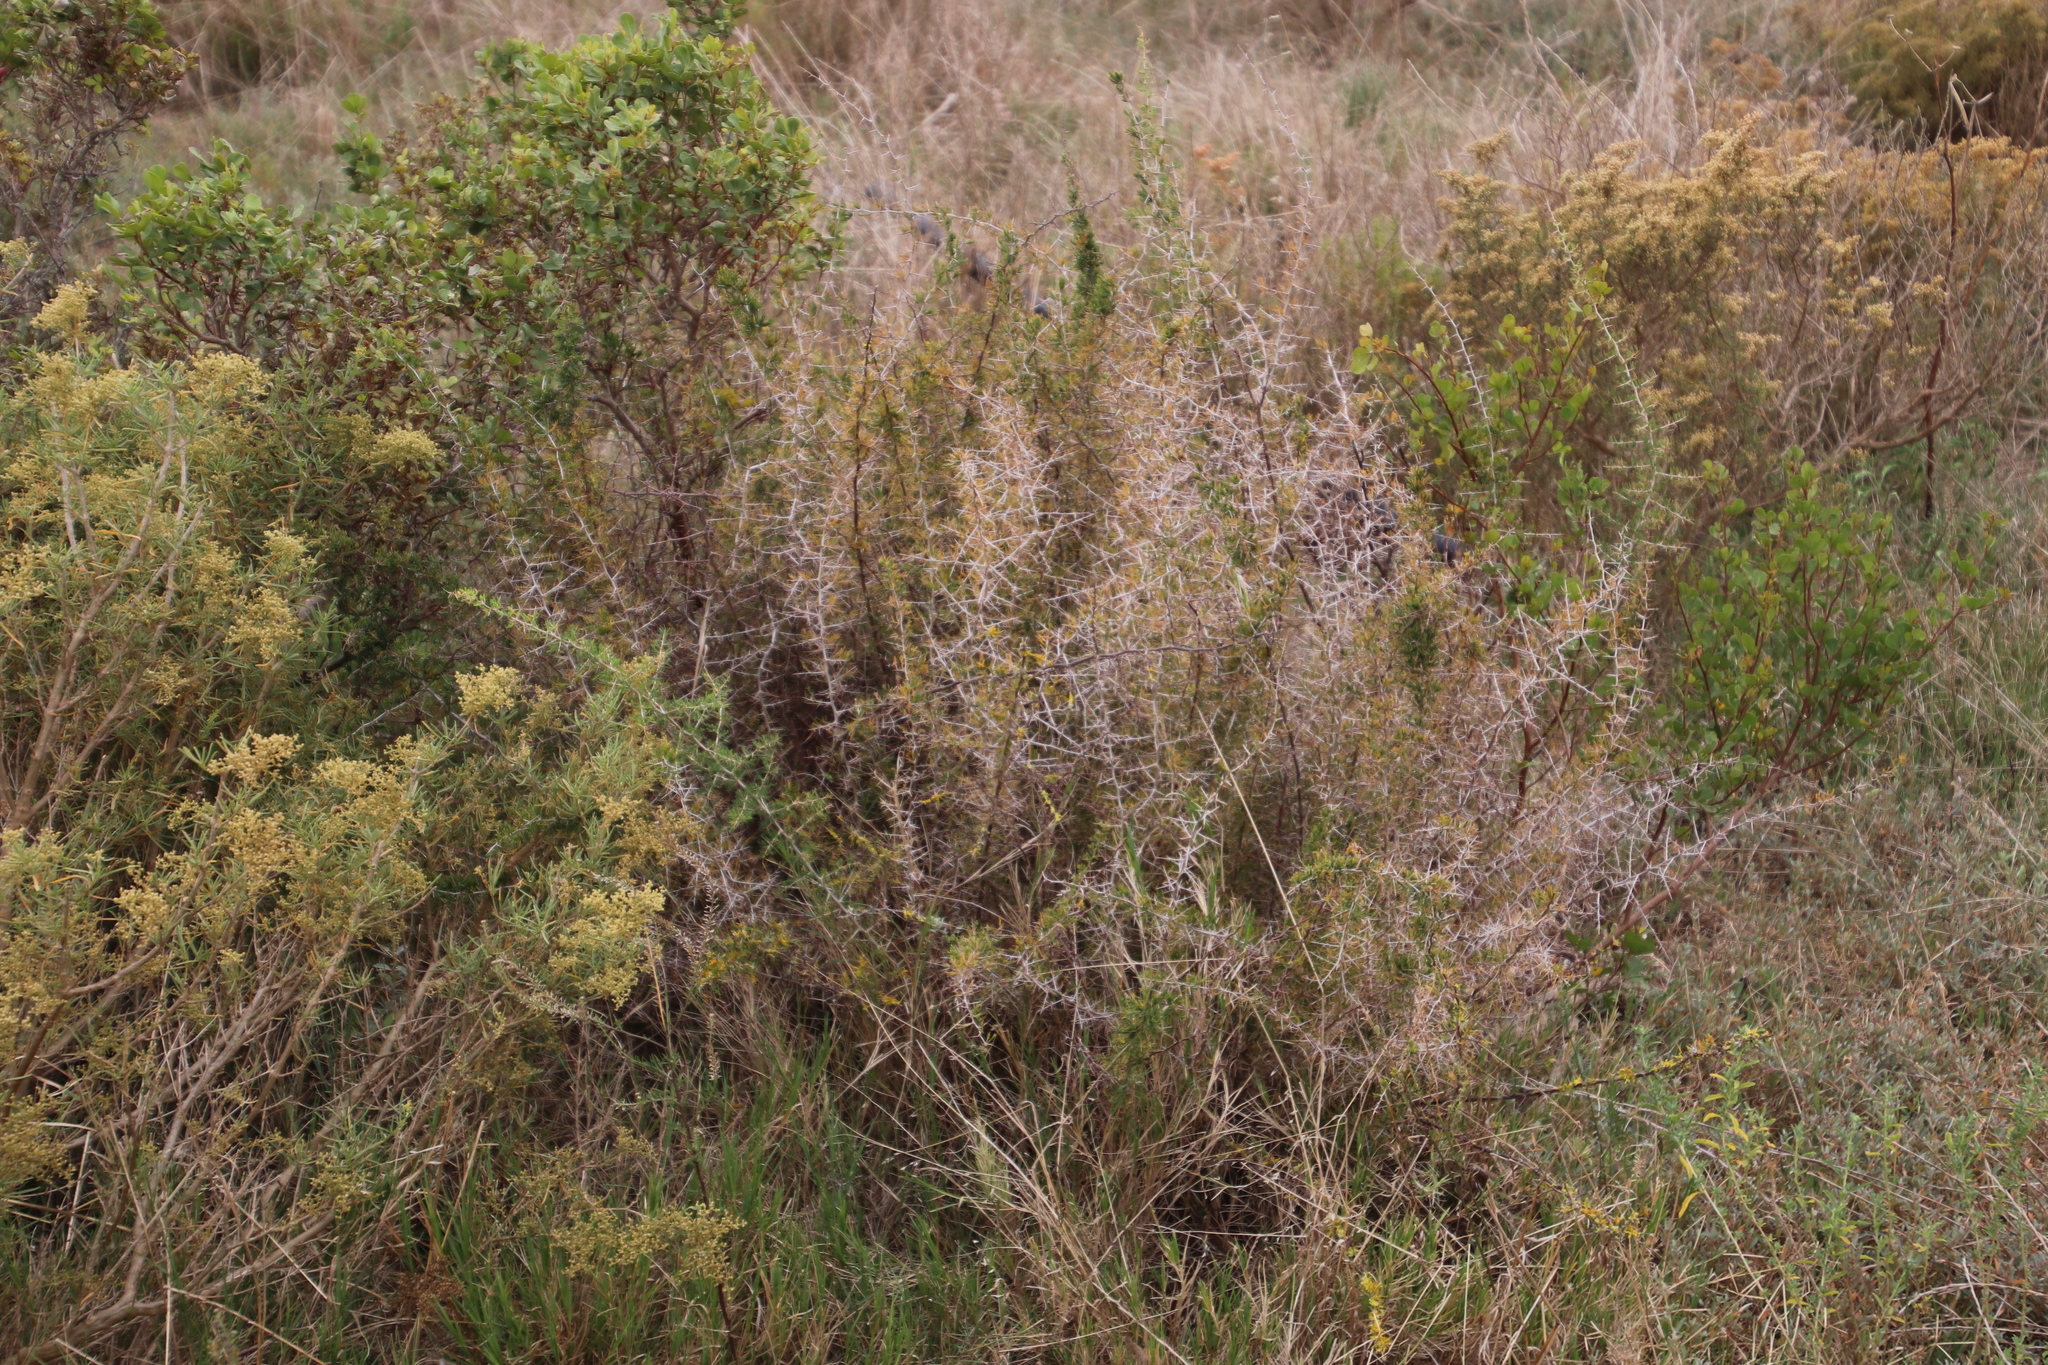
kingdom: Plantae
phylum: Tracheophyta
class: Liliopsida
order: Asparagales
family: Asparagaceae
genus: Asparagus
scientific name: Asparagus suaveolens
